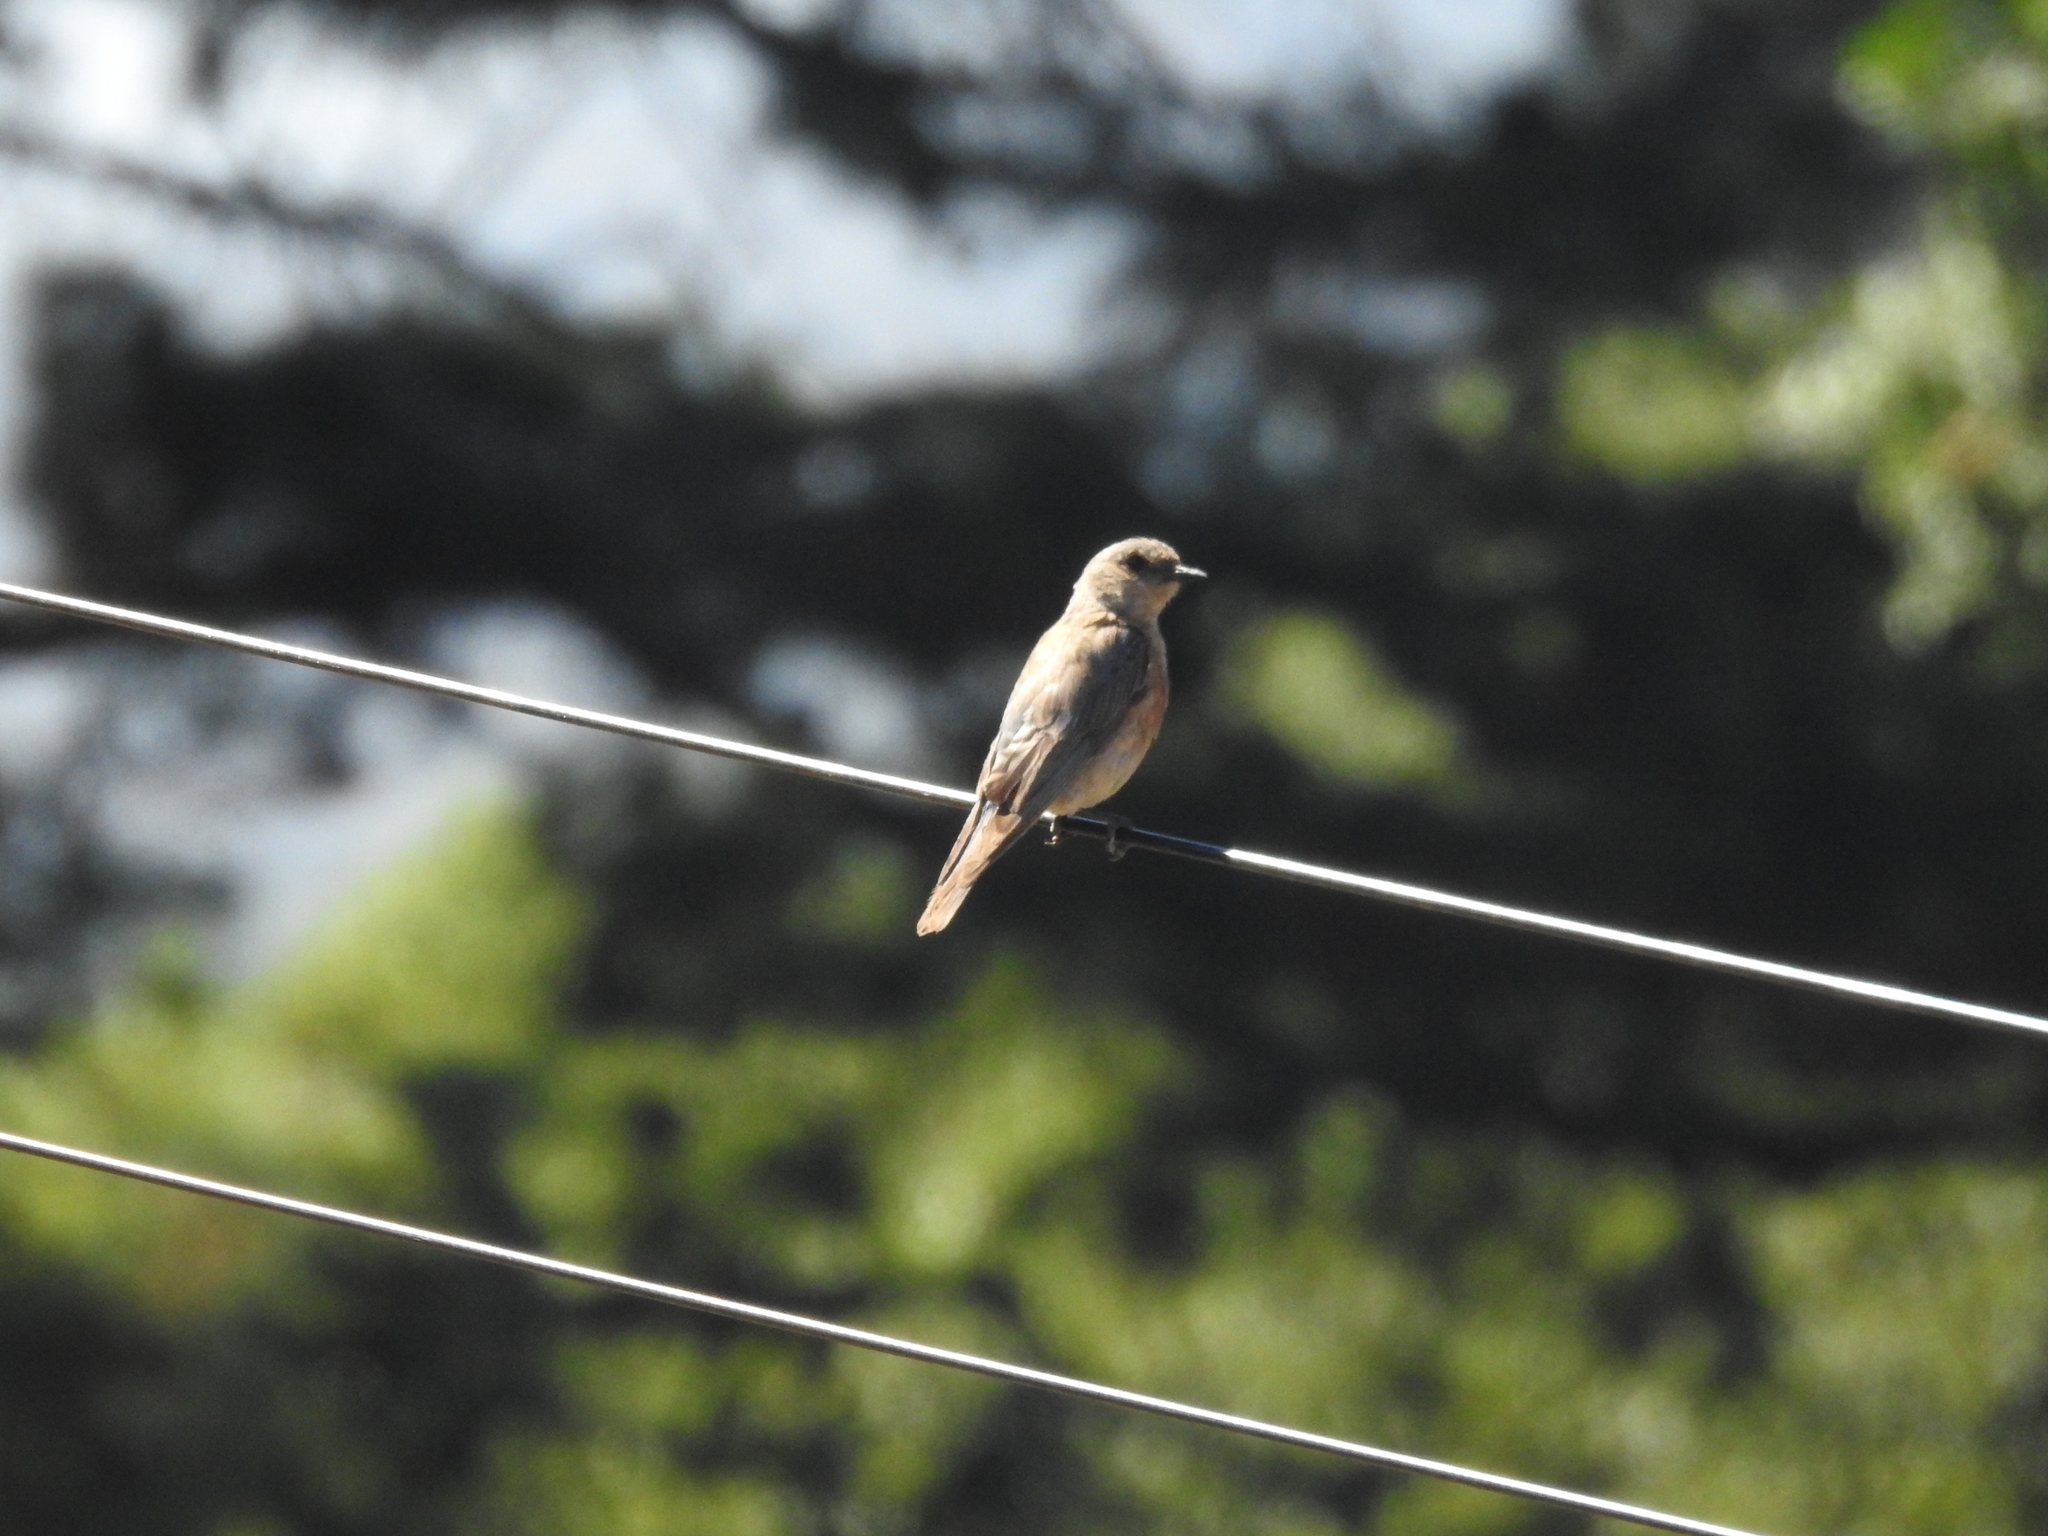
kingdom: Animalia
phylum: Chordata
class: Aves
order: Passeriformes
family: Turdidae
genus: Sialia
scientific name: Sialia mexicana
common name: Western bluebird
